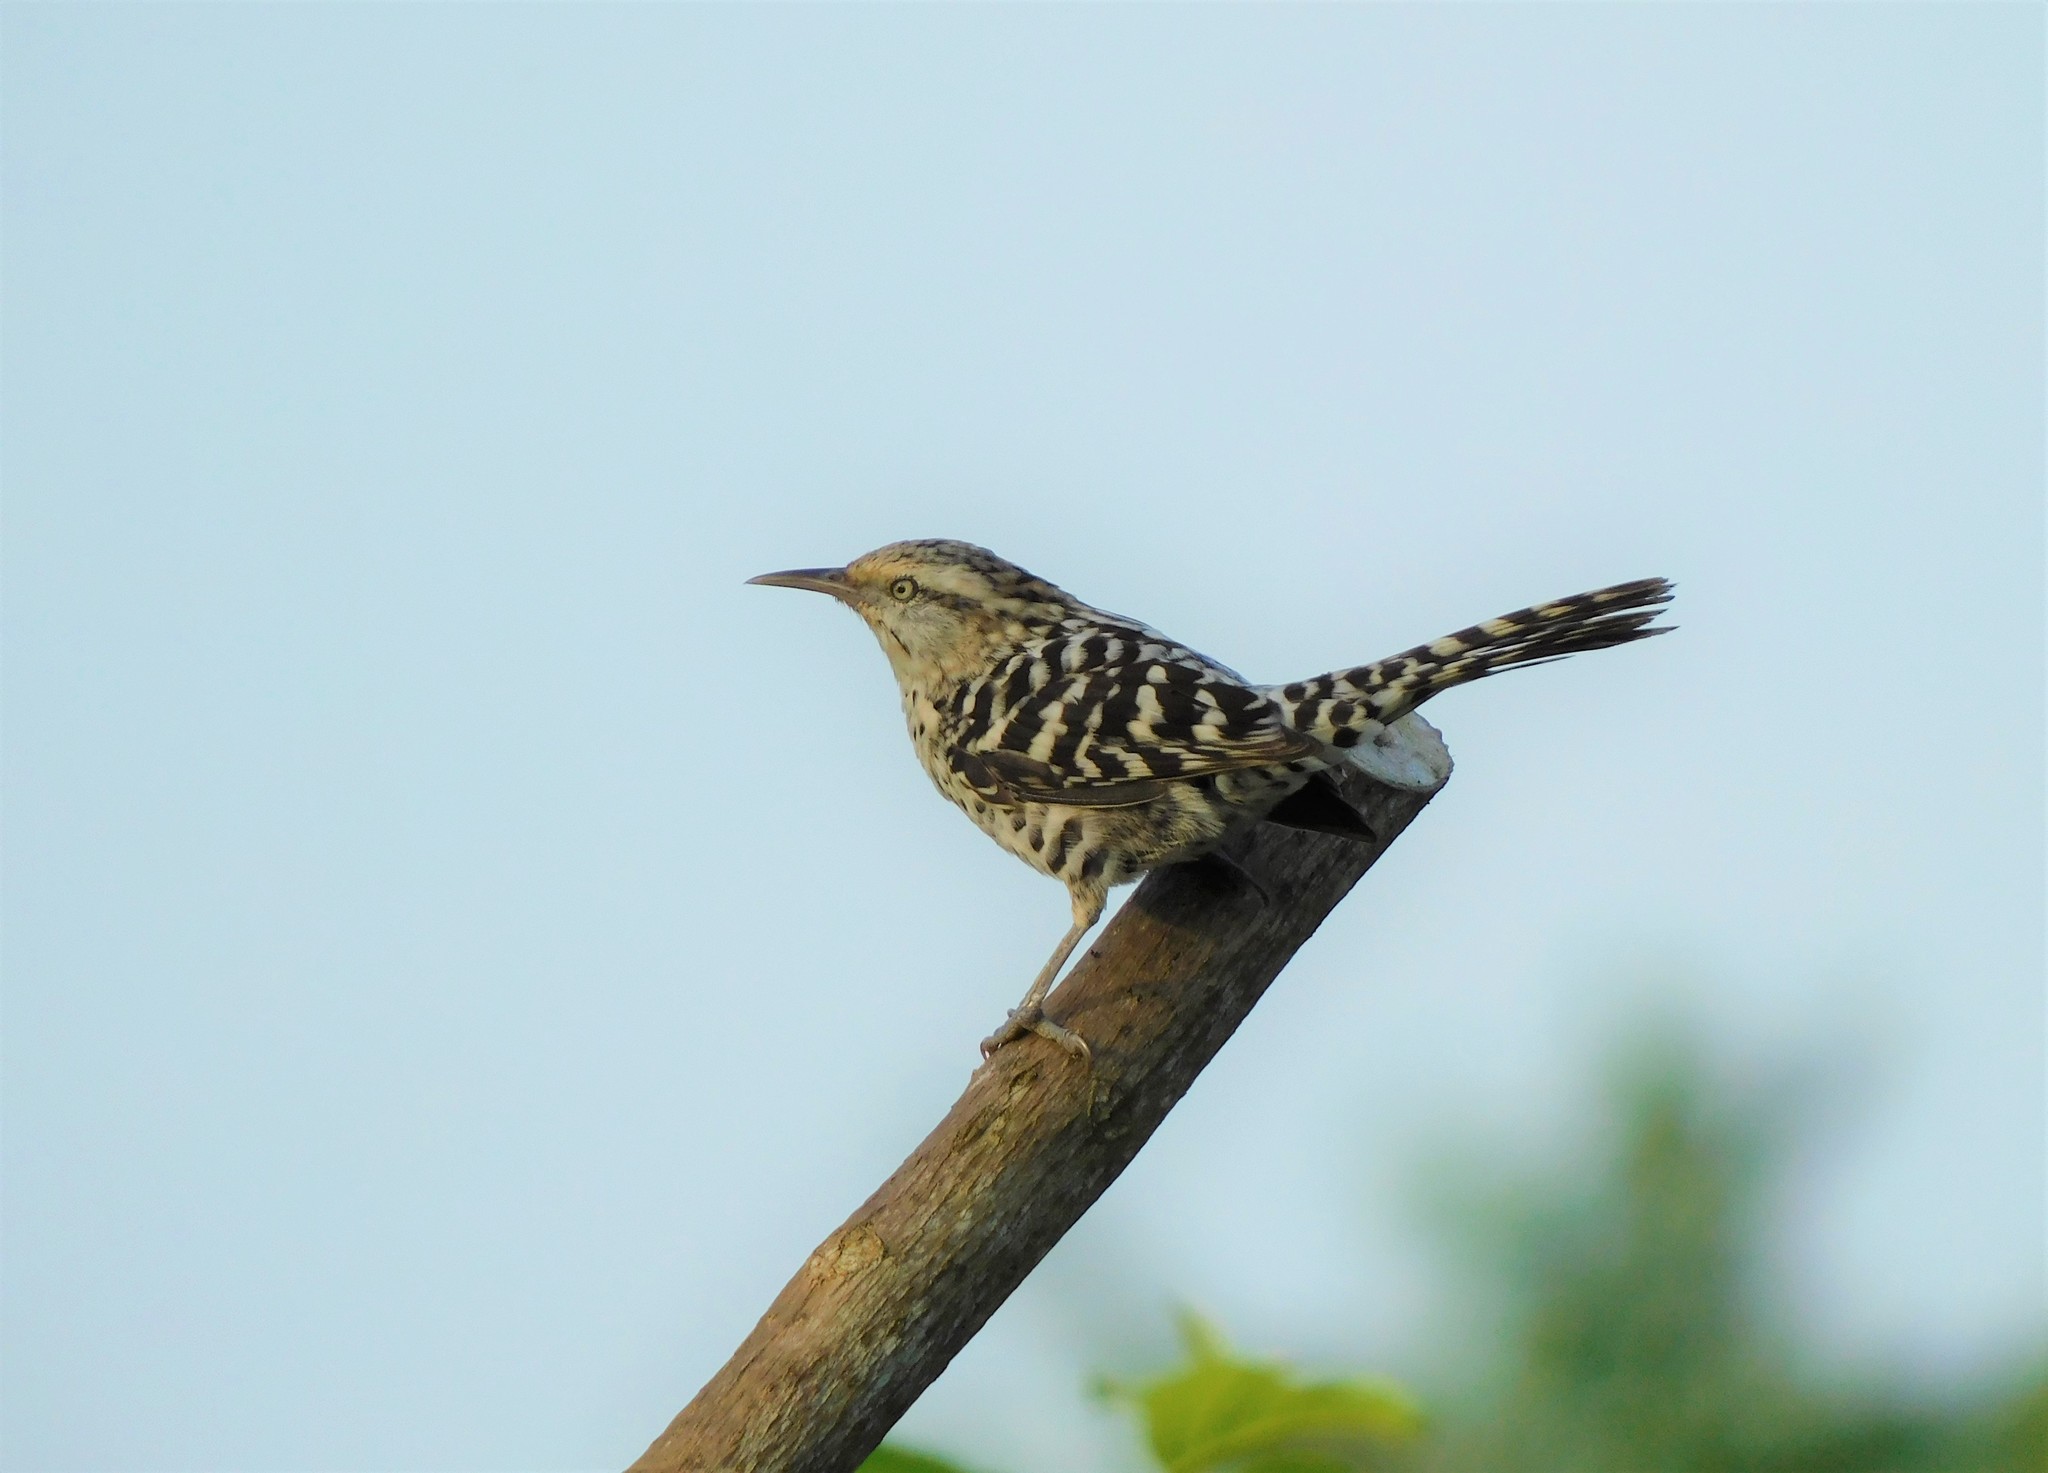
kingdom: Animalia
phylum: Chordata
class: Aves
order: Passeriformes
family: Troglodytidae
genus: Campylorhynchus
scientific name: Campylorhynchus nuchalis
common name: Stripe-backed wren
